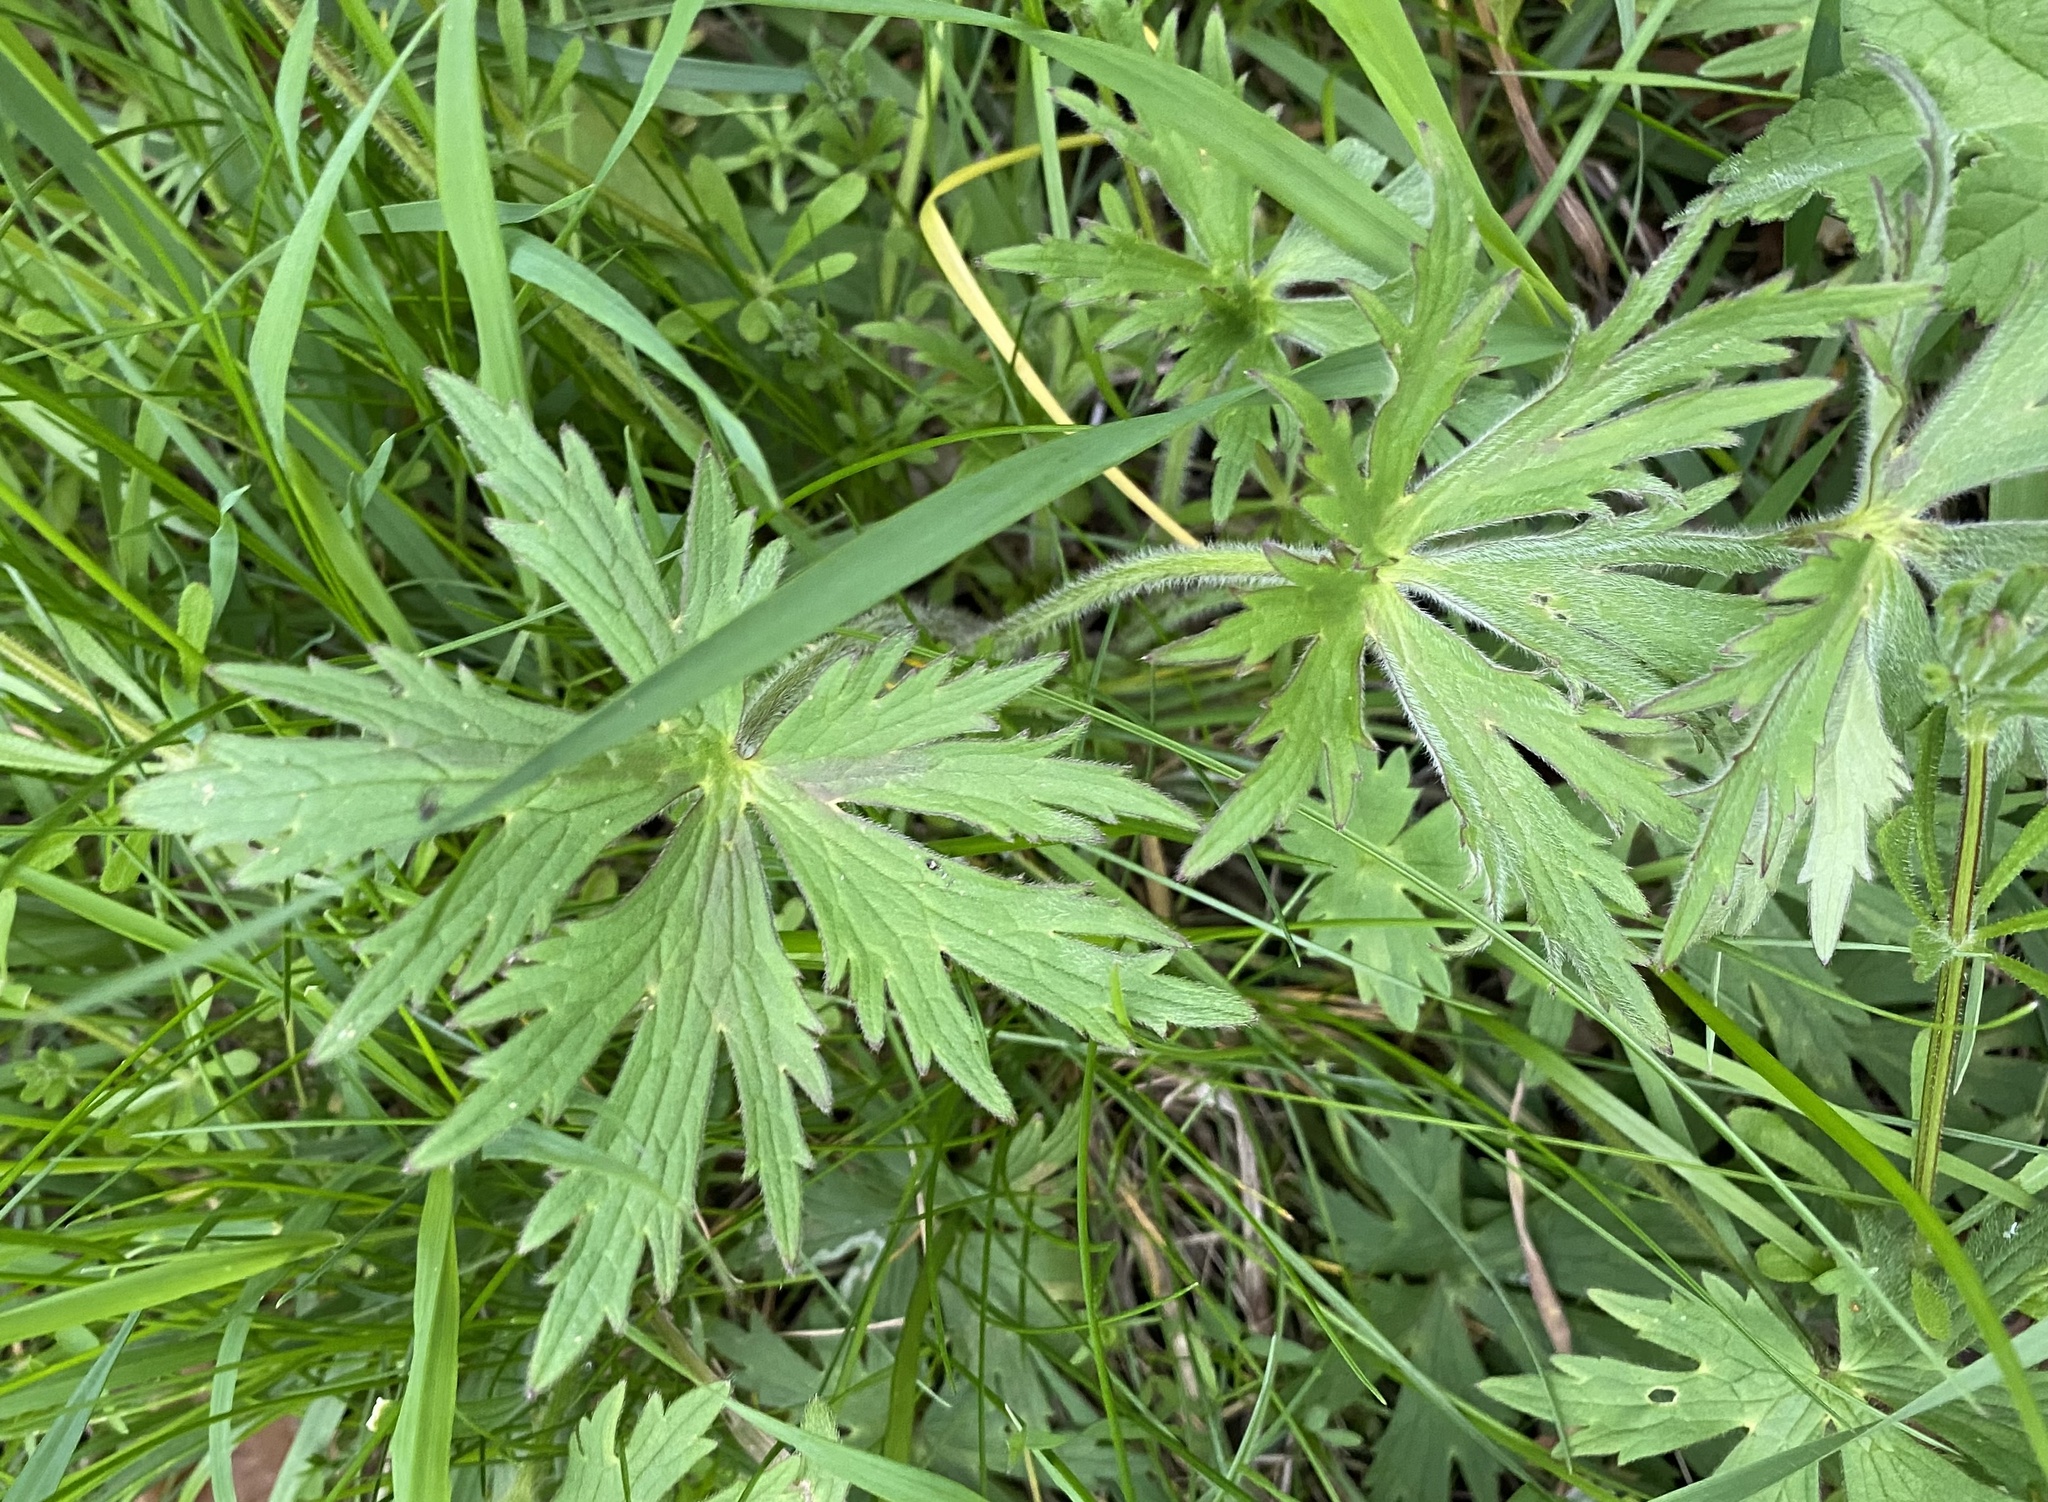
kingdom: Plantae
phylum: Tracheophyta
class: Magnoliopsida
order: Ranunculales
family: Ranunculaceae
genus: Ranunculus
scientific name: Ranunculus acris
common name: Meadow buttercup
